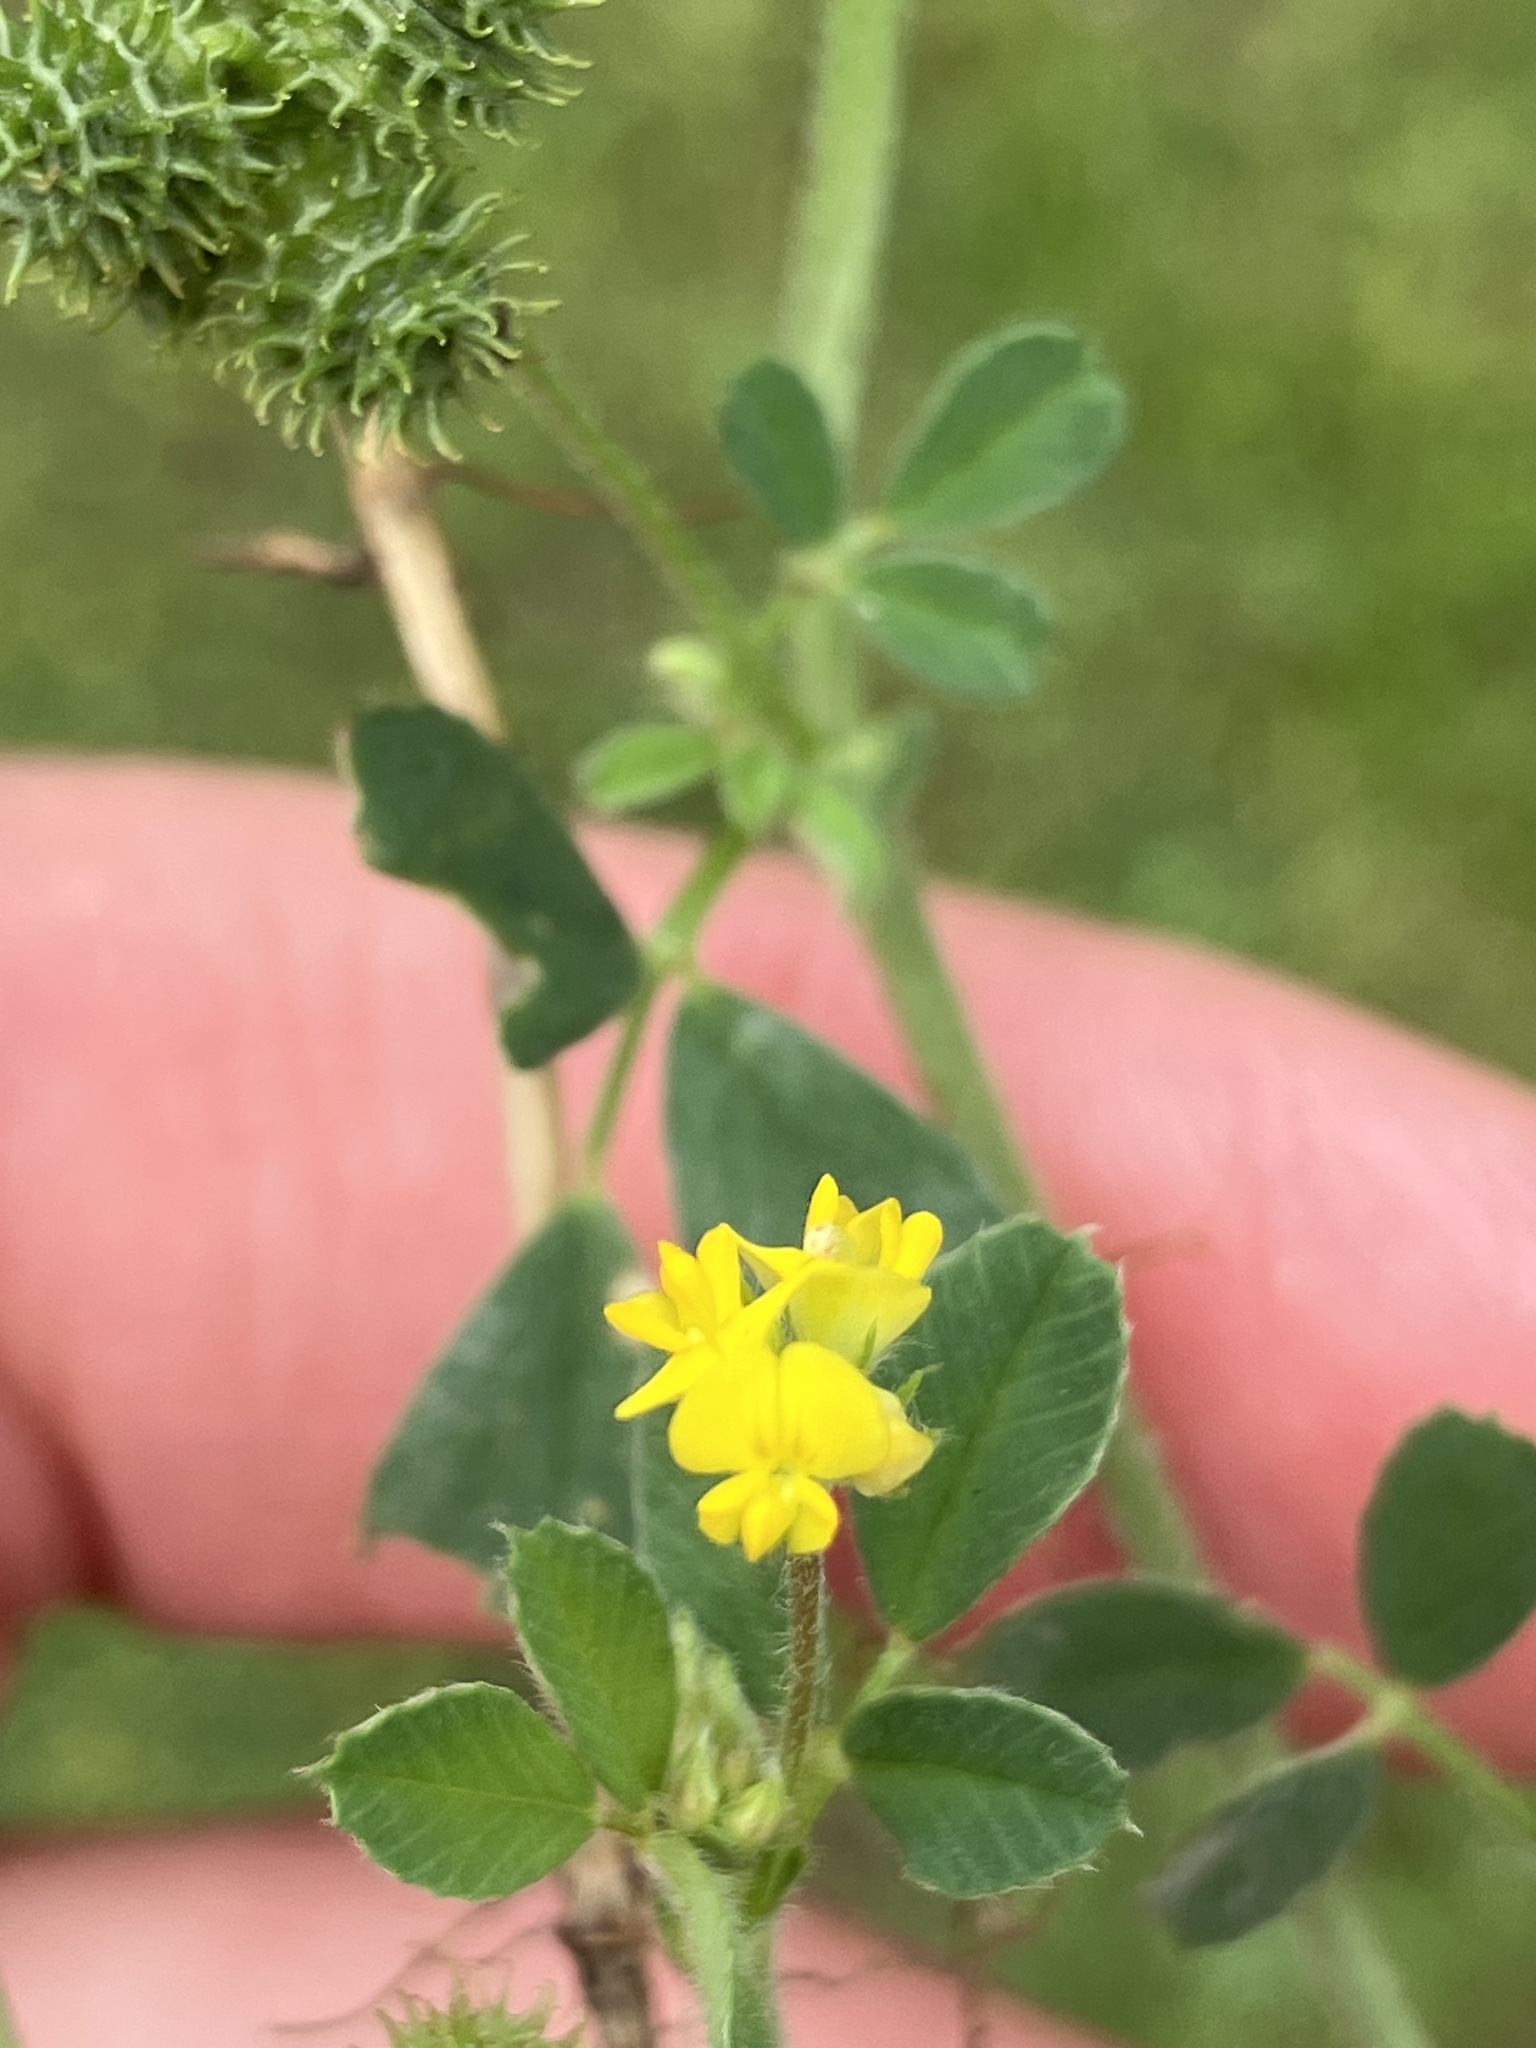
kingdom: Plantae
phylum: Tracheophyta
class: Magnoliopsida
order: Fabales
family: Fabaceae
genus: Medicago
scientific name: Medicago minima
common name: Little bur-clover
